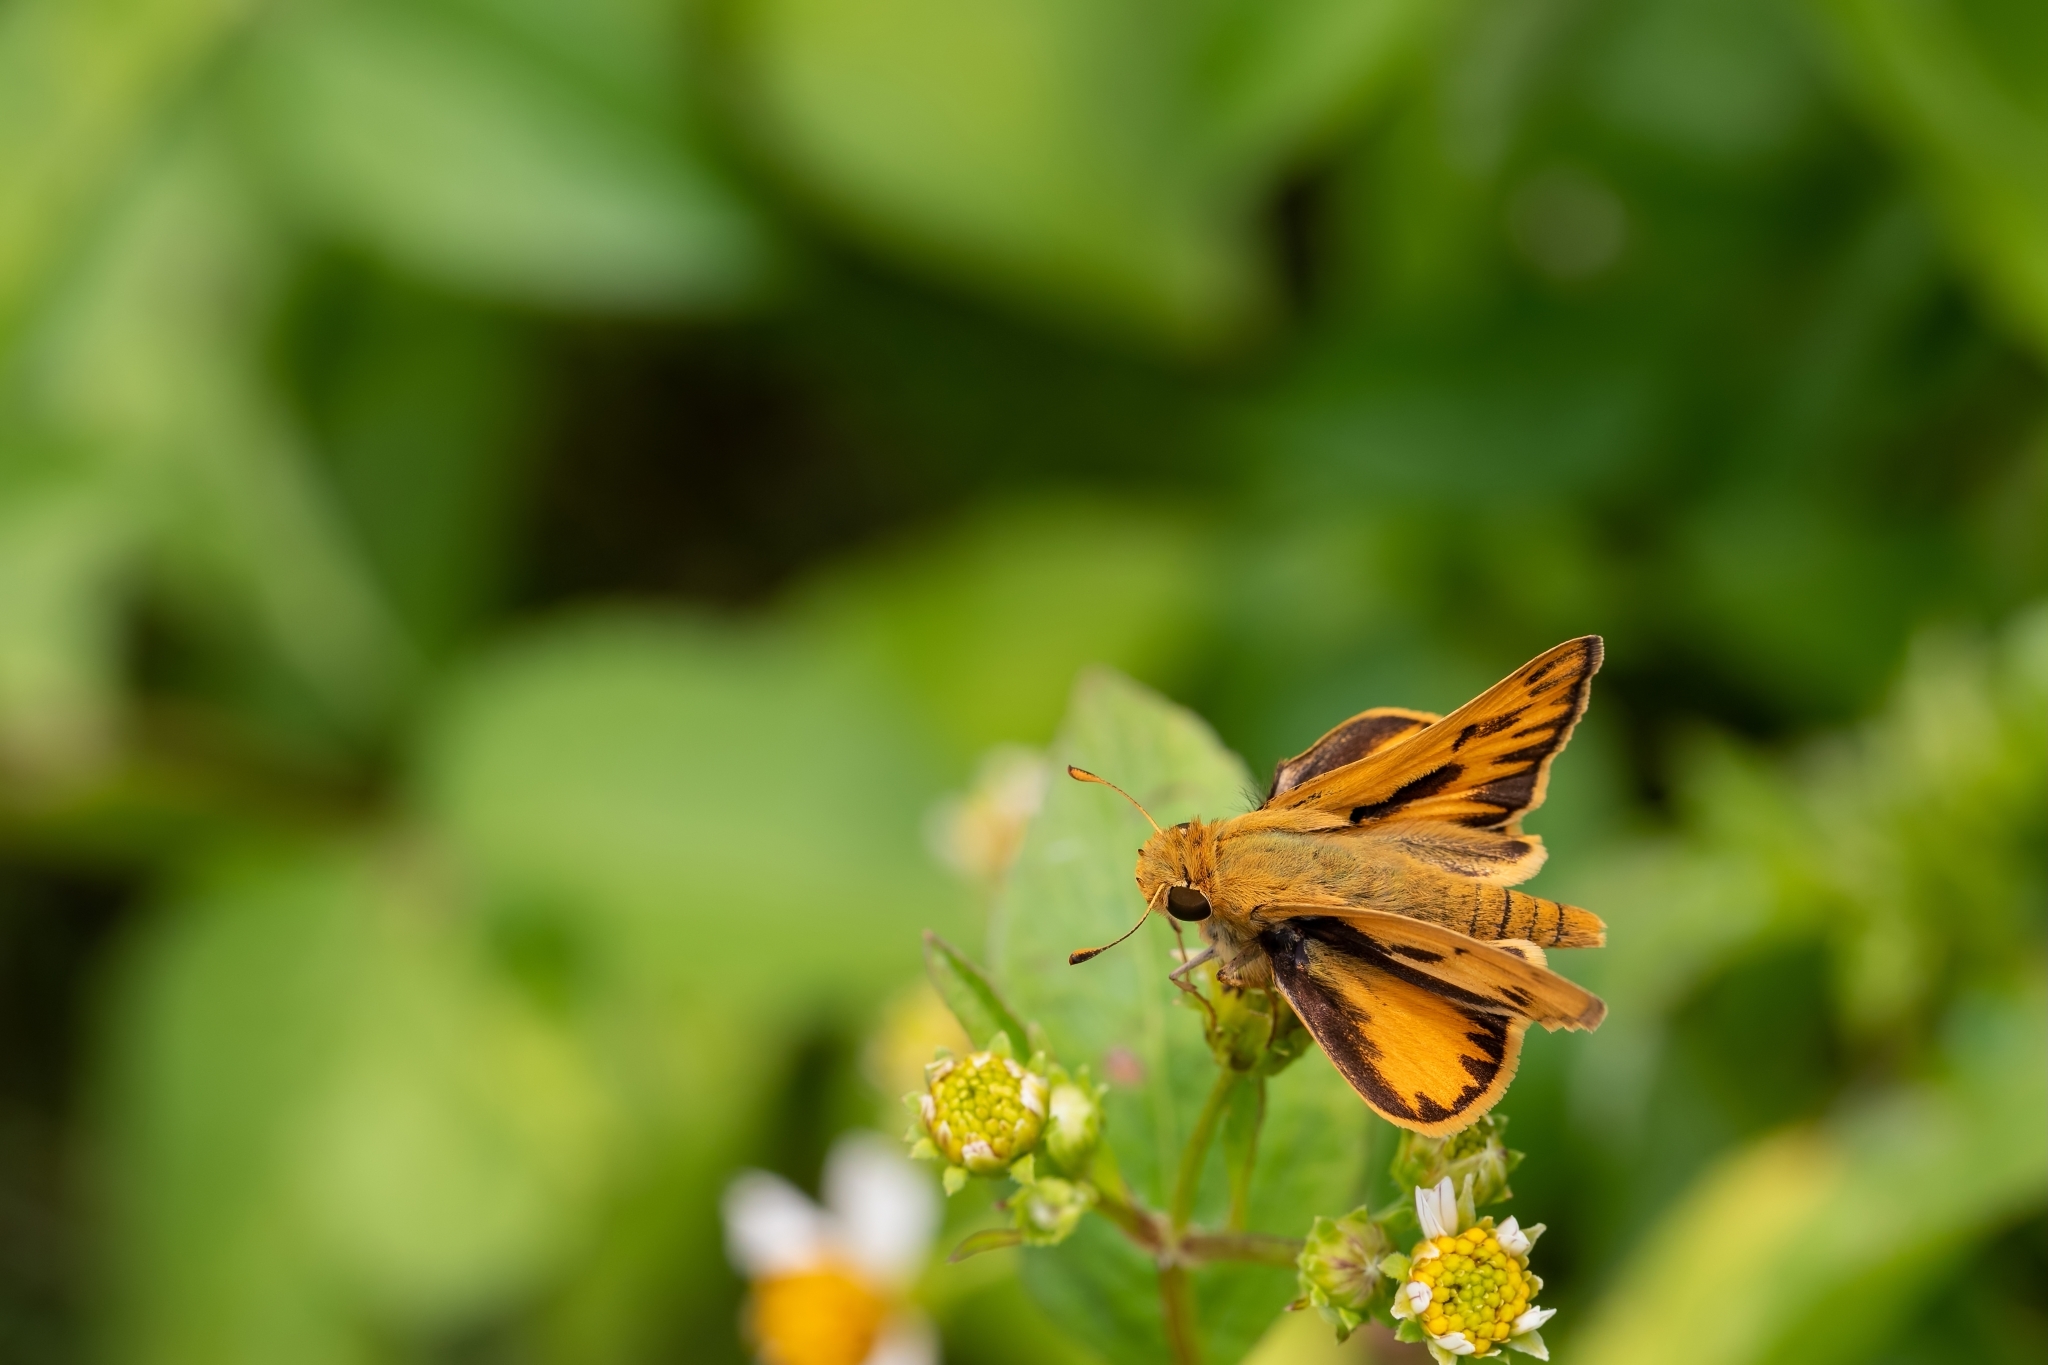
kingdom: Animalia
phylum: Arthropoda
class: Insecta
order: Lepidoptera
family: Hesperiidae
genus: Hylephila
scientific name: Hylephila phyleus
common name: Fiery skipper
